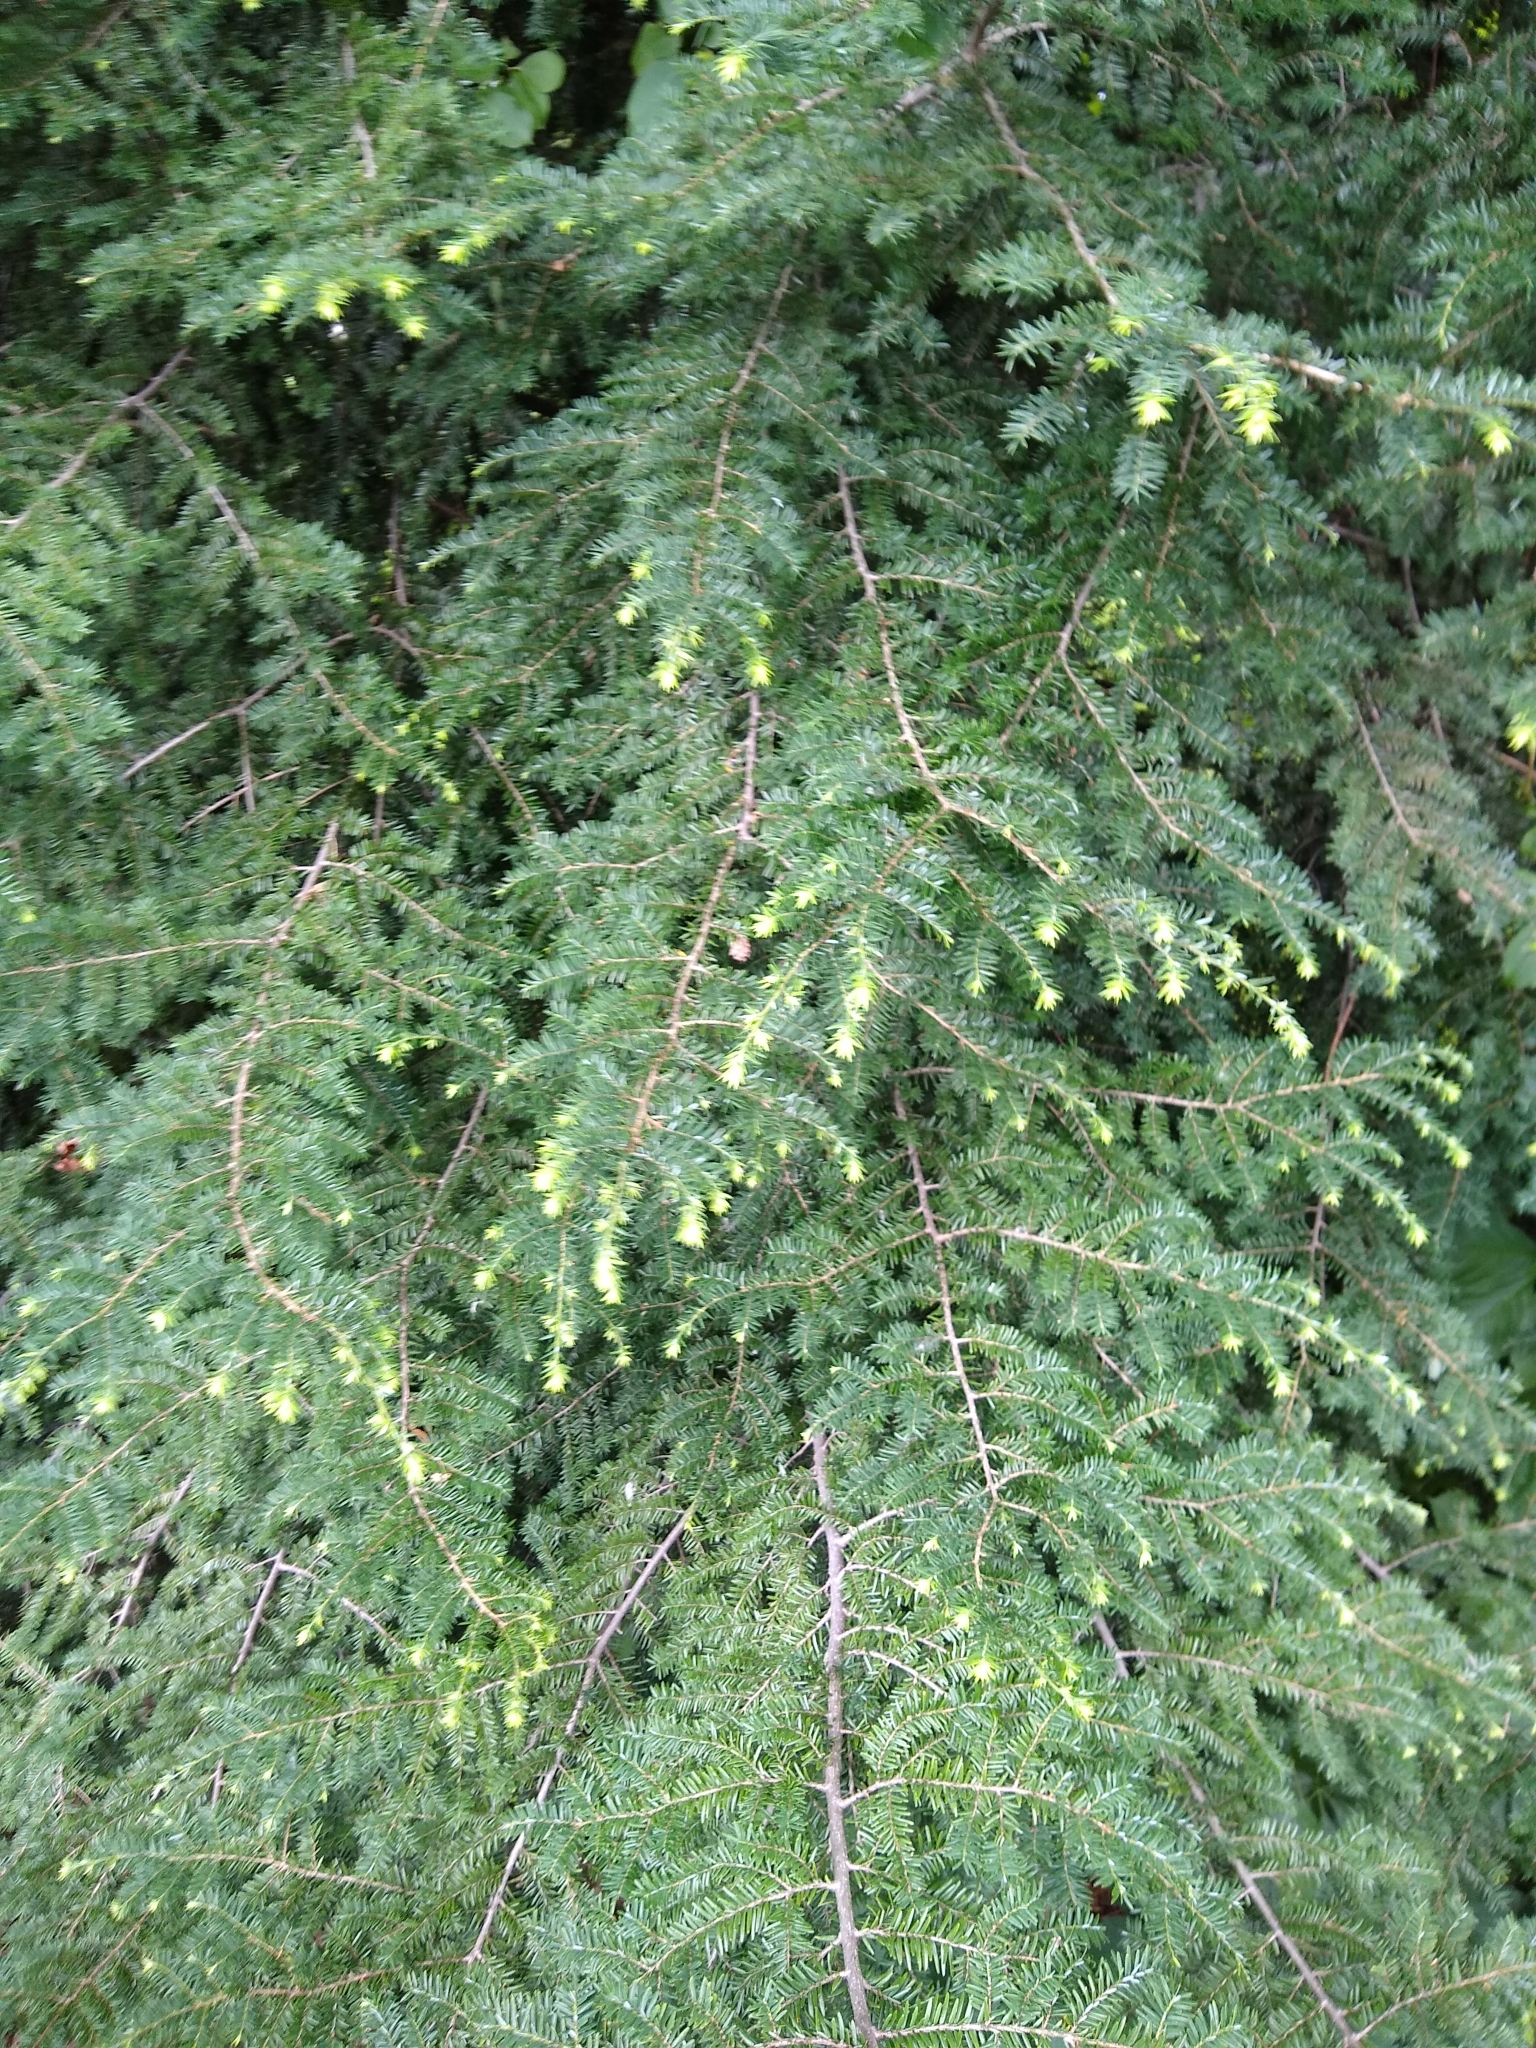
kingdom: Plantae
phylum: Tracheophyta
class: Pinopsida
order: Pinales
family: Pinaceae
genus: Tsuga
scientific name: Tsuga canadensis
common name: Eastern hemlock
